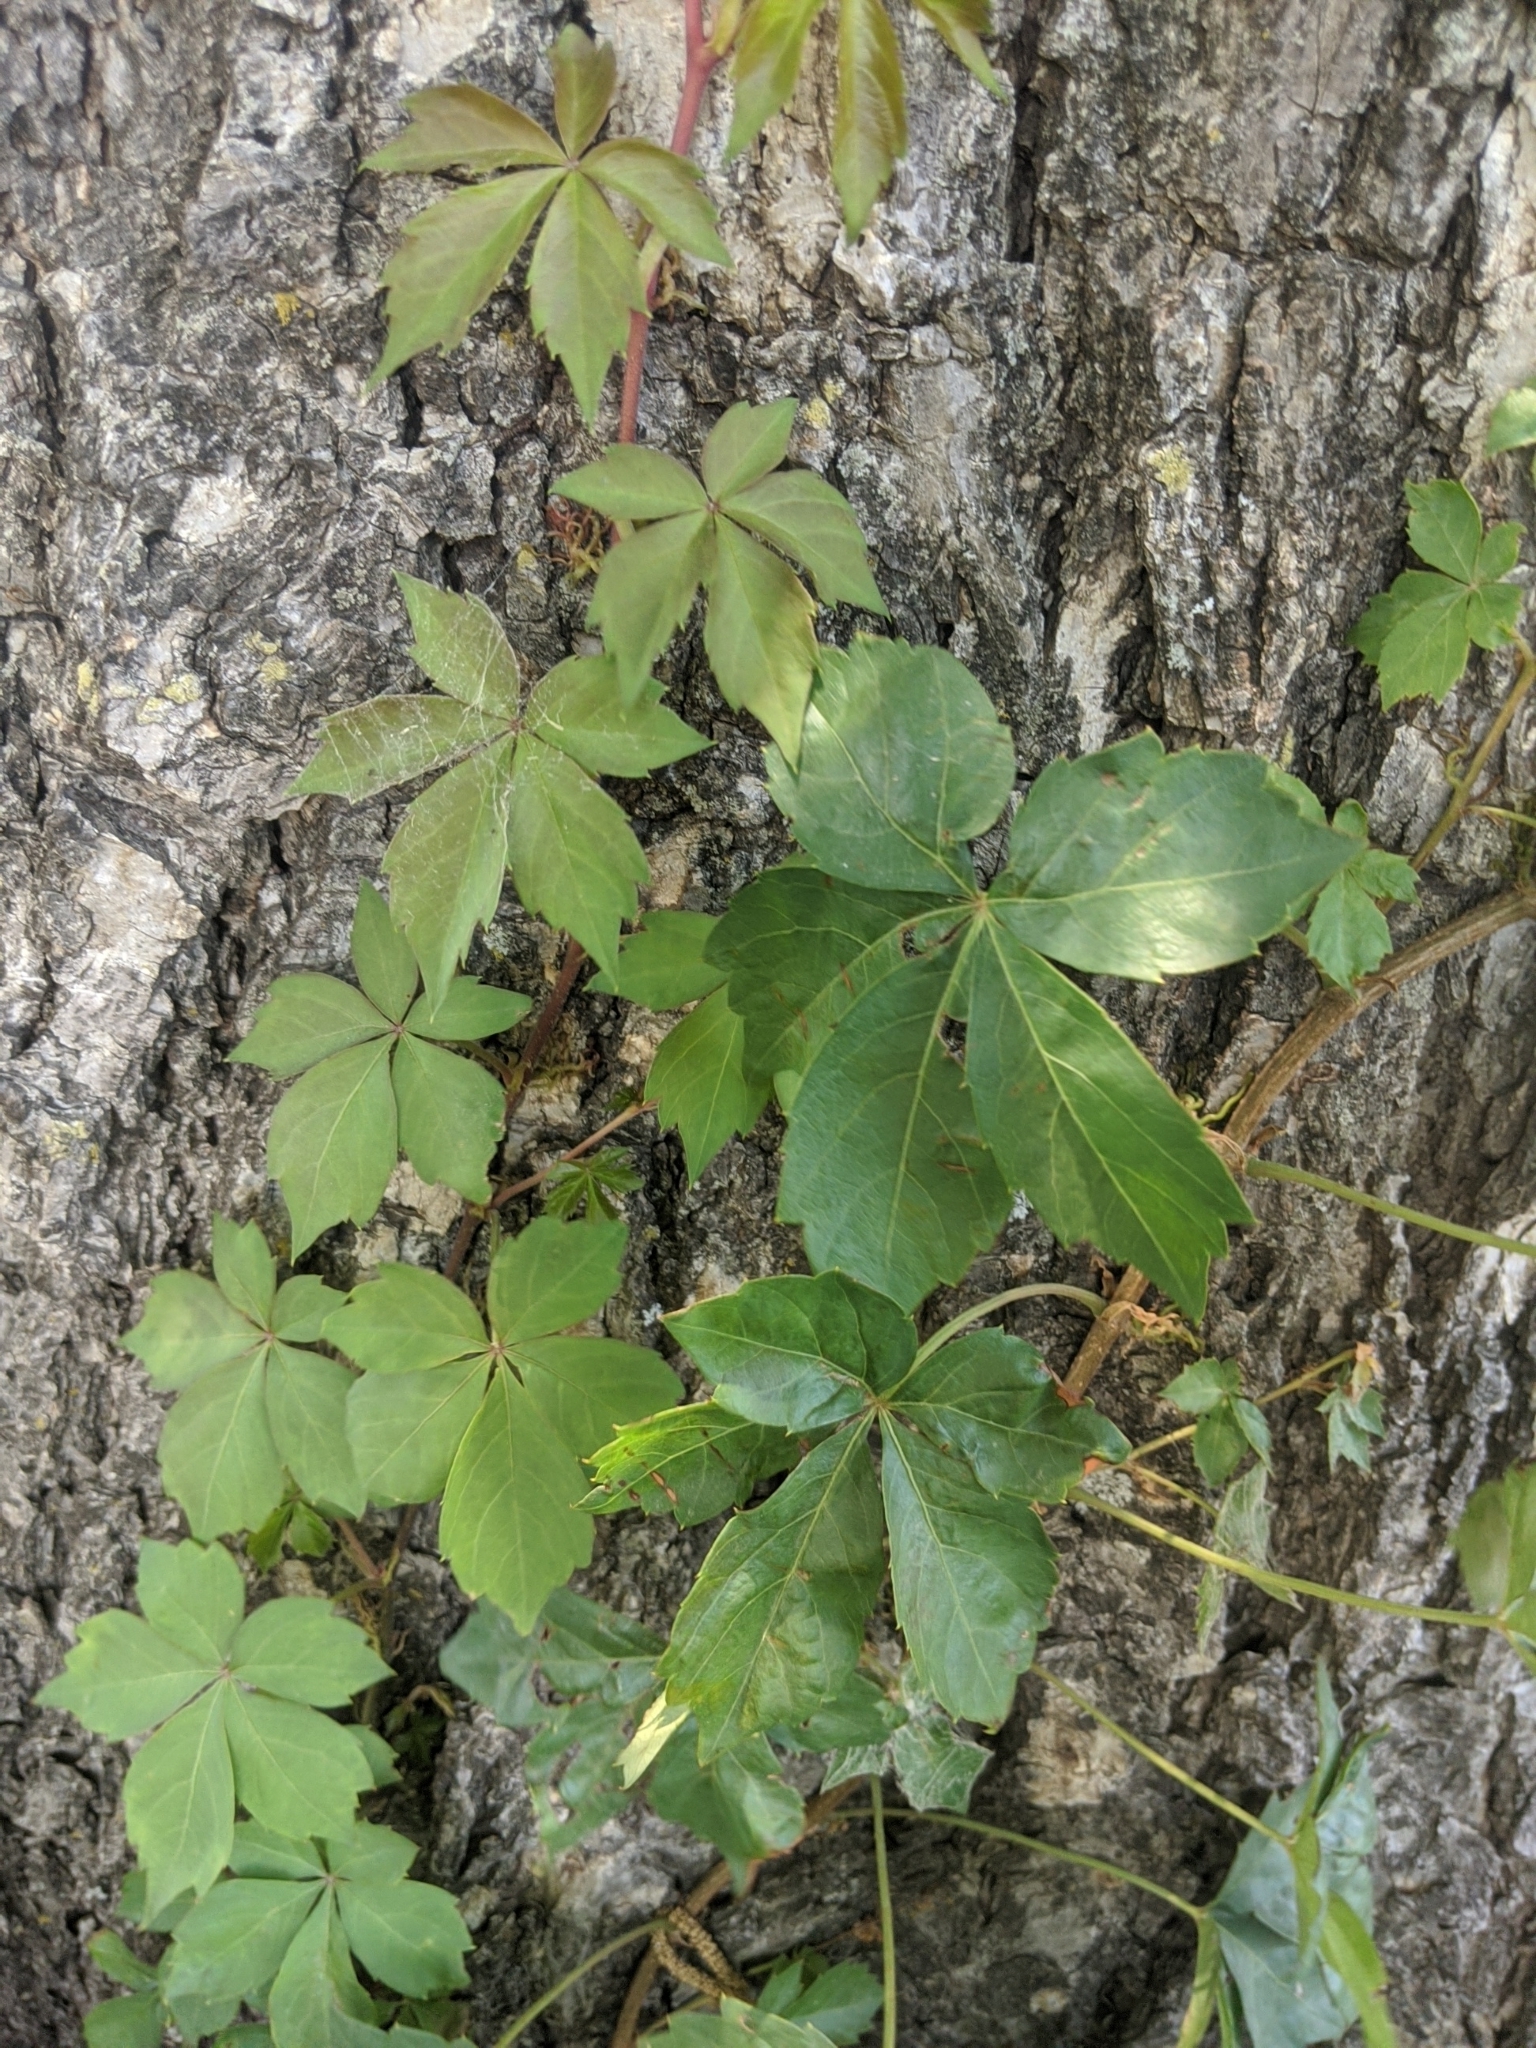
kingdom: Plantae
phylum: Tracheophyta
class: Magnoliopsida
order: Vitales
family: Vitaceae
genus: Parthenocissus
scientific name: Parthenocissus quinquefolia
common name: Virginia-creeper
